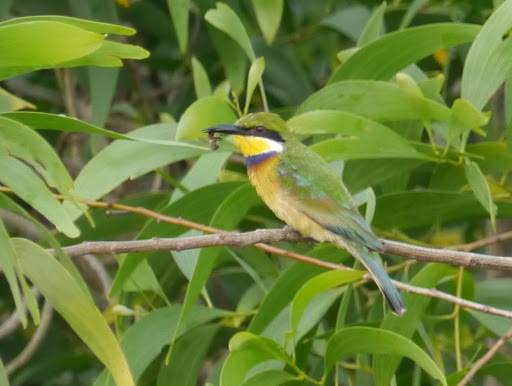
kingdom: Animalia
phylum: Chordata
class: Aves
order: Coraciiformes
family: Meropidae
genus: Merops
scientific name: Merops variegatus
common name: Blue-breasted bee-eater
